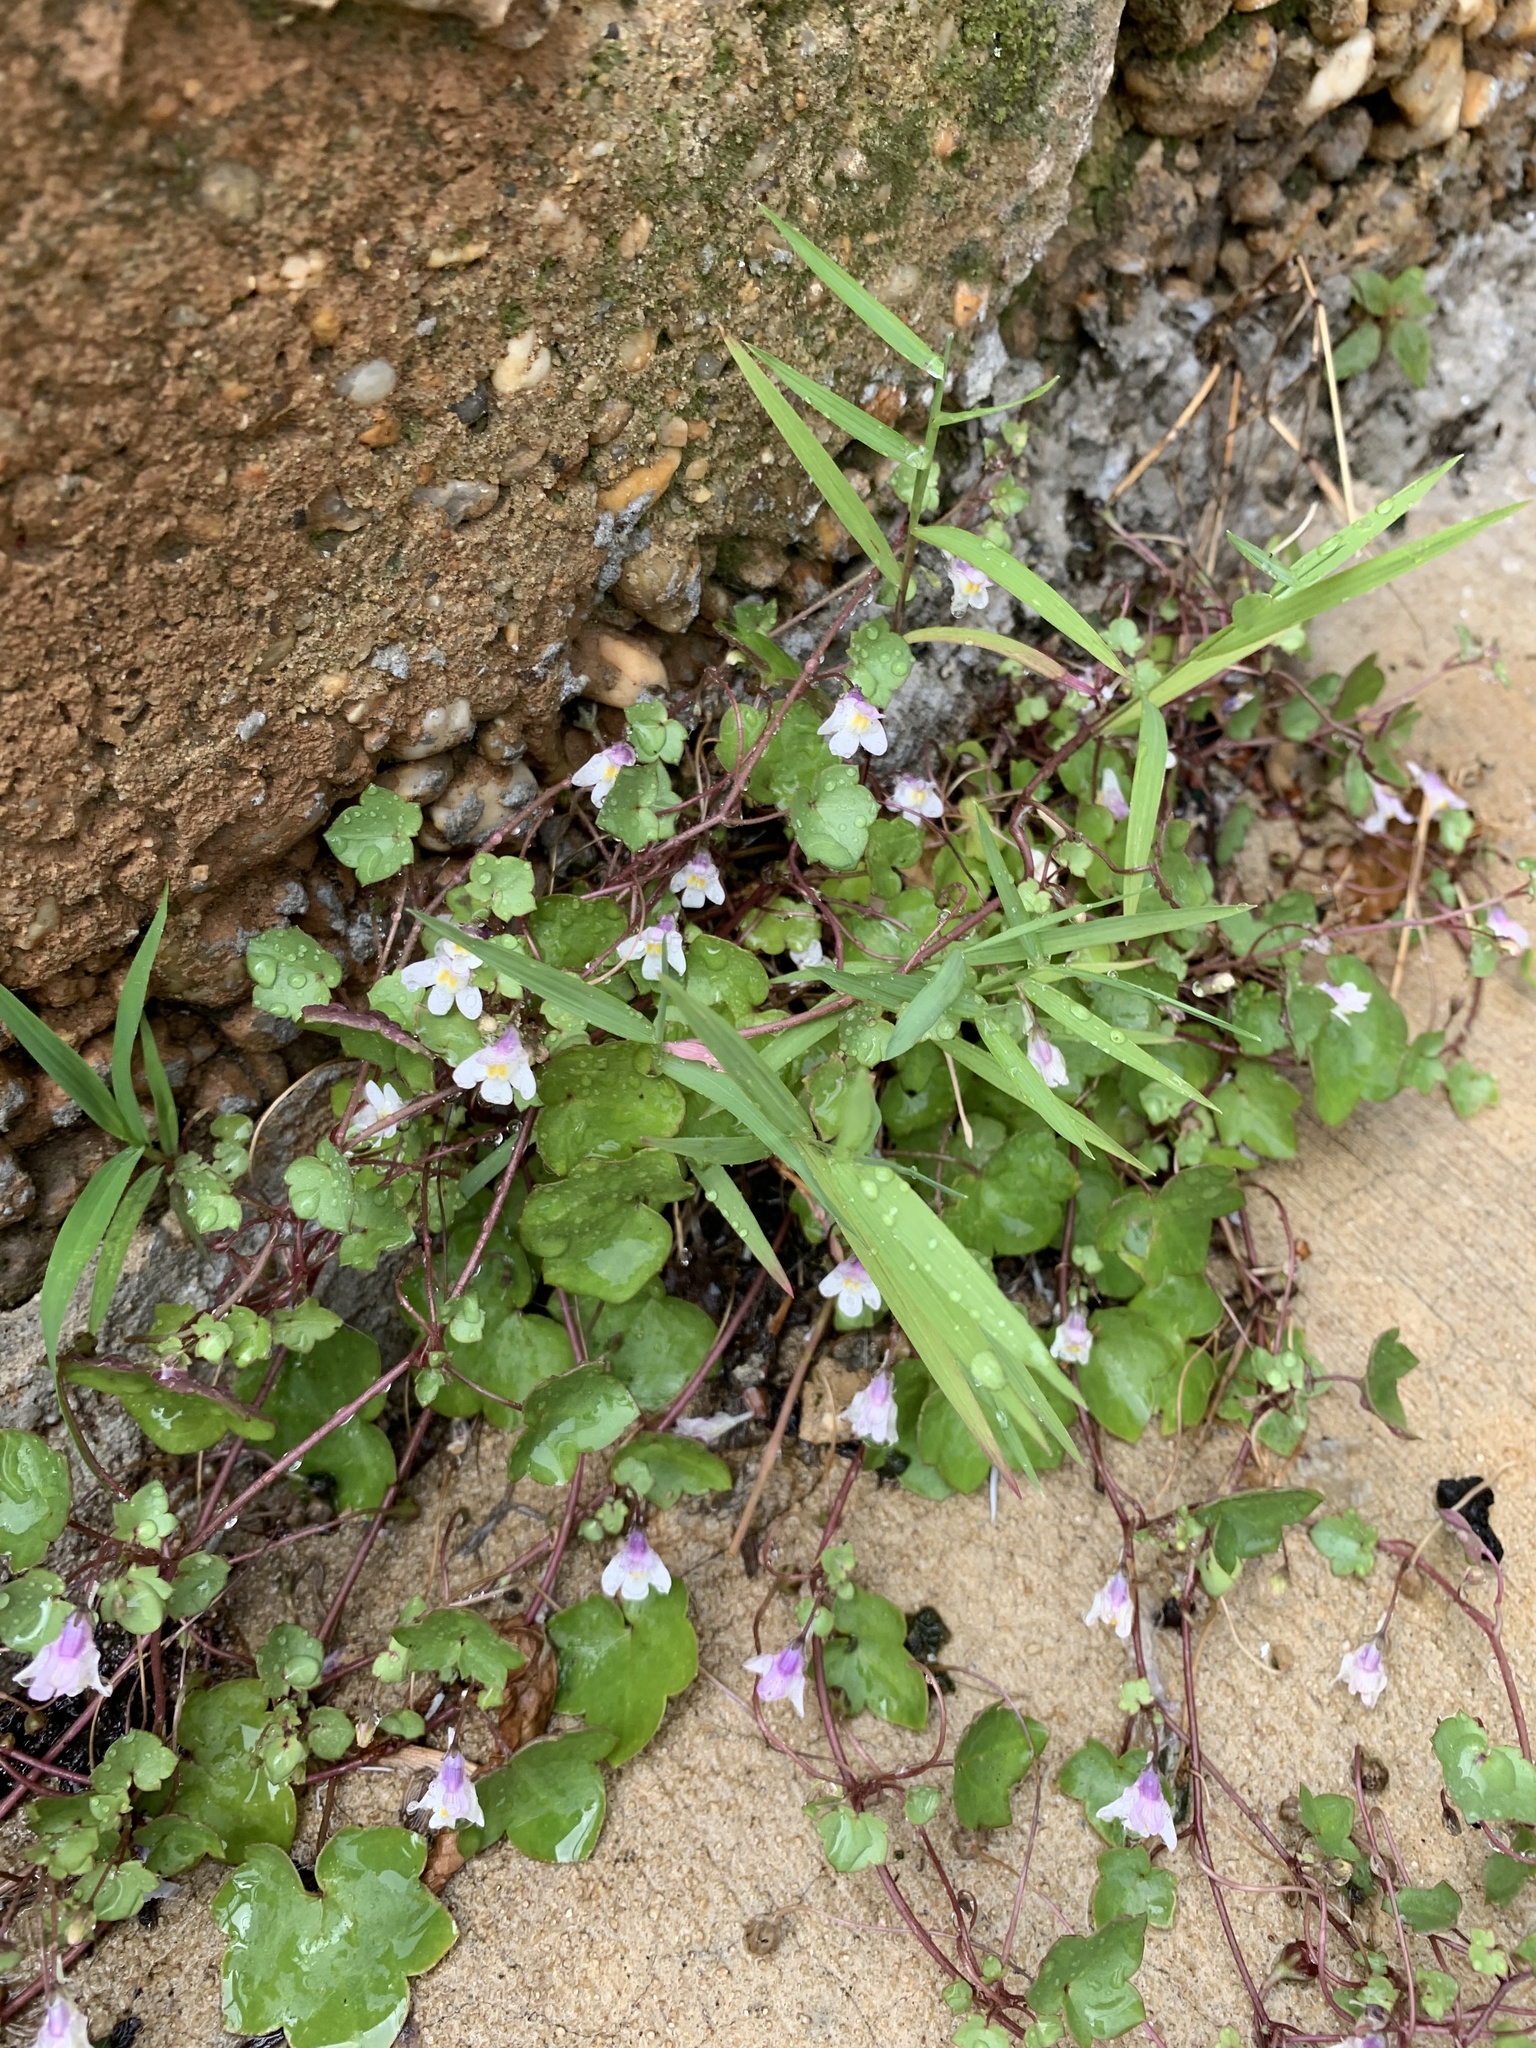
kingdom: Plantae
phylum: Tracheophyta
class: Magnoliopsida
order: Lamiales
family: Plantaginaceae
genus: Cymbalaria
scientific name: Cymbalaria muralis
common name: Ivy-leaved toadflax
